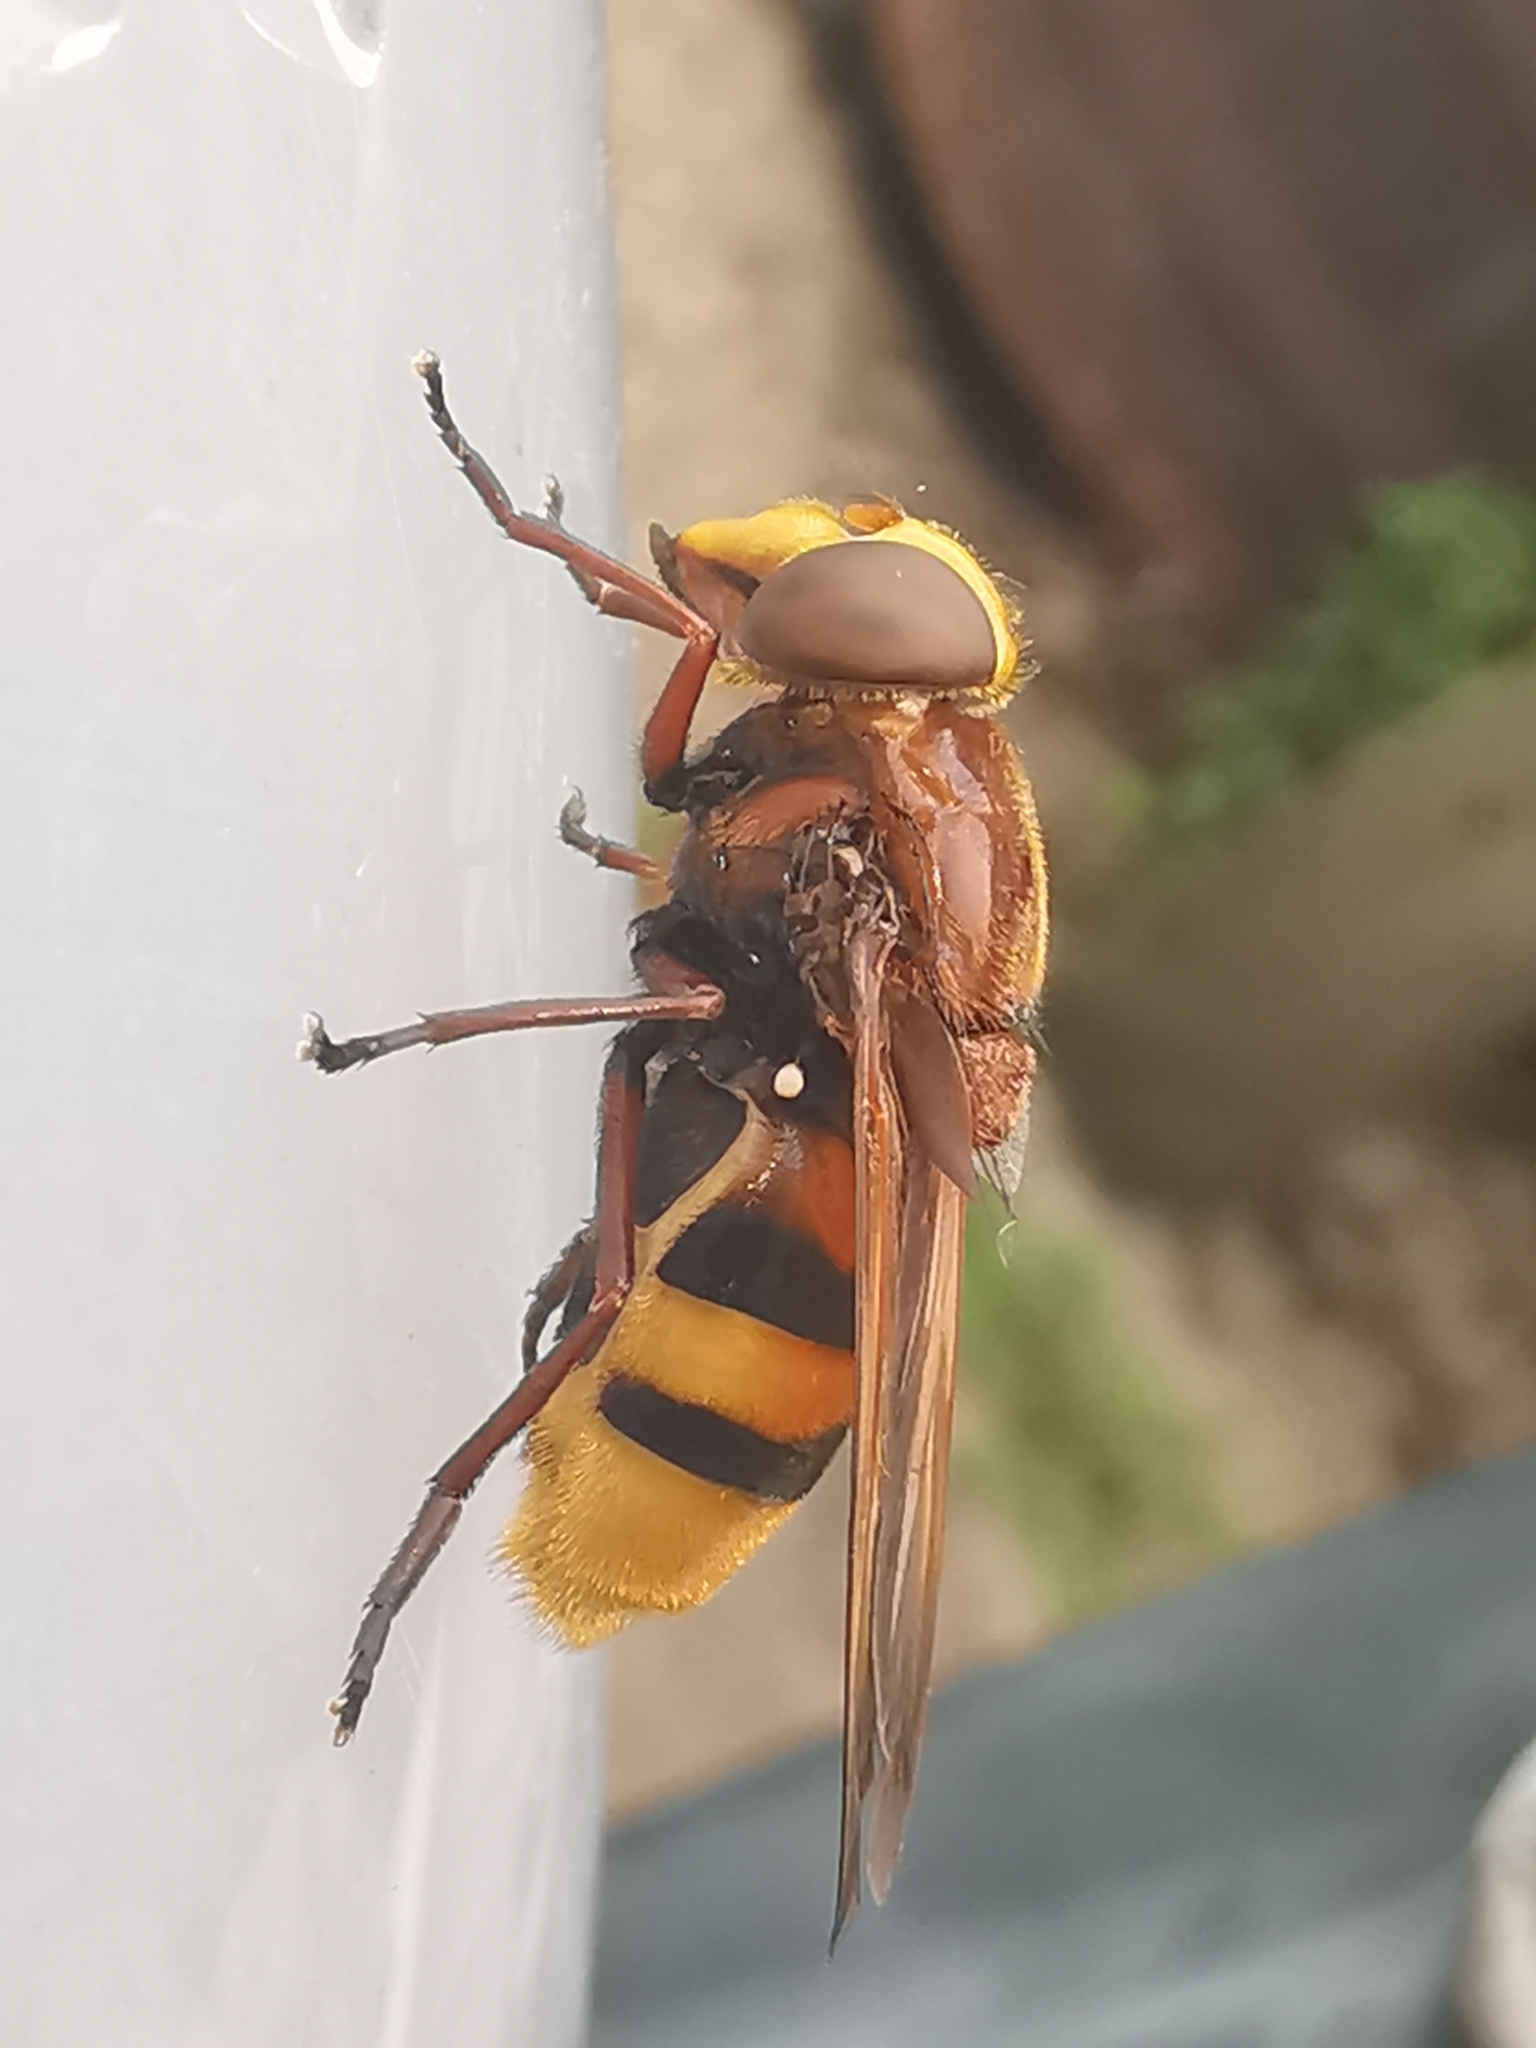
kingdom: Animalia
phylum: Arthropoda
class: Insecta
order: Diptera
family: Syrphidae
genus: Volucella
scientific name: Volucella zonaria
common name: Hornet hoverfly
